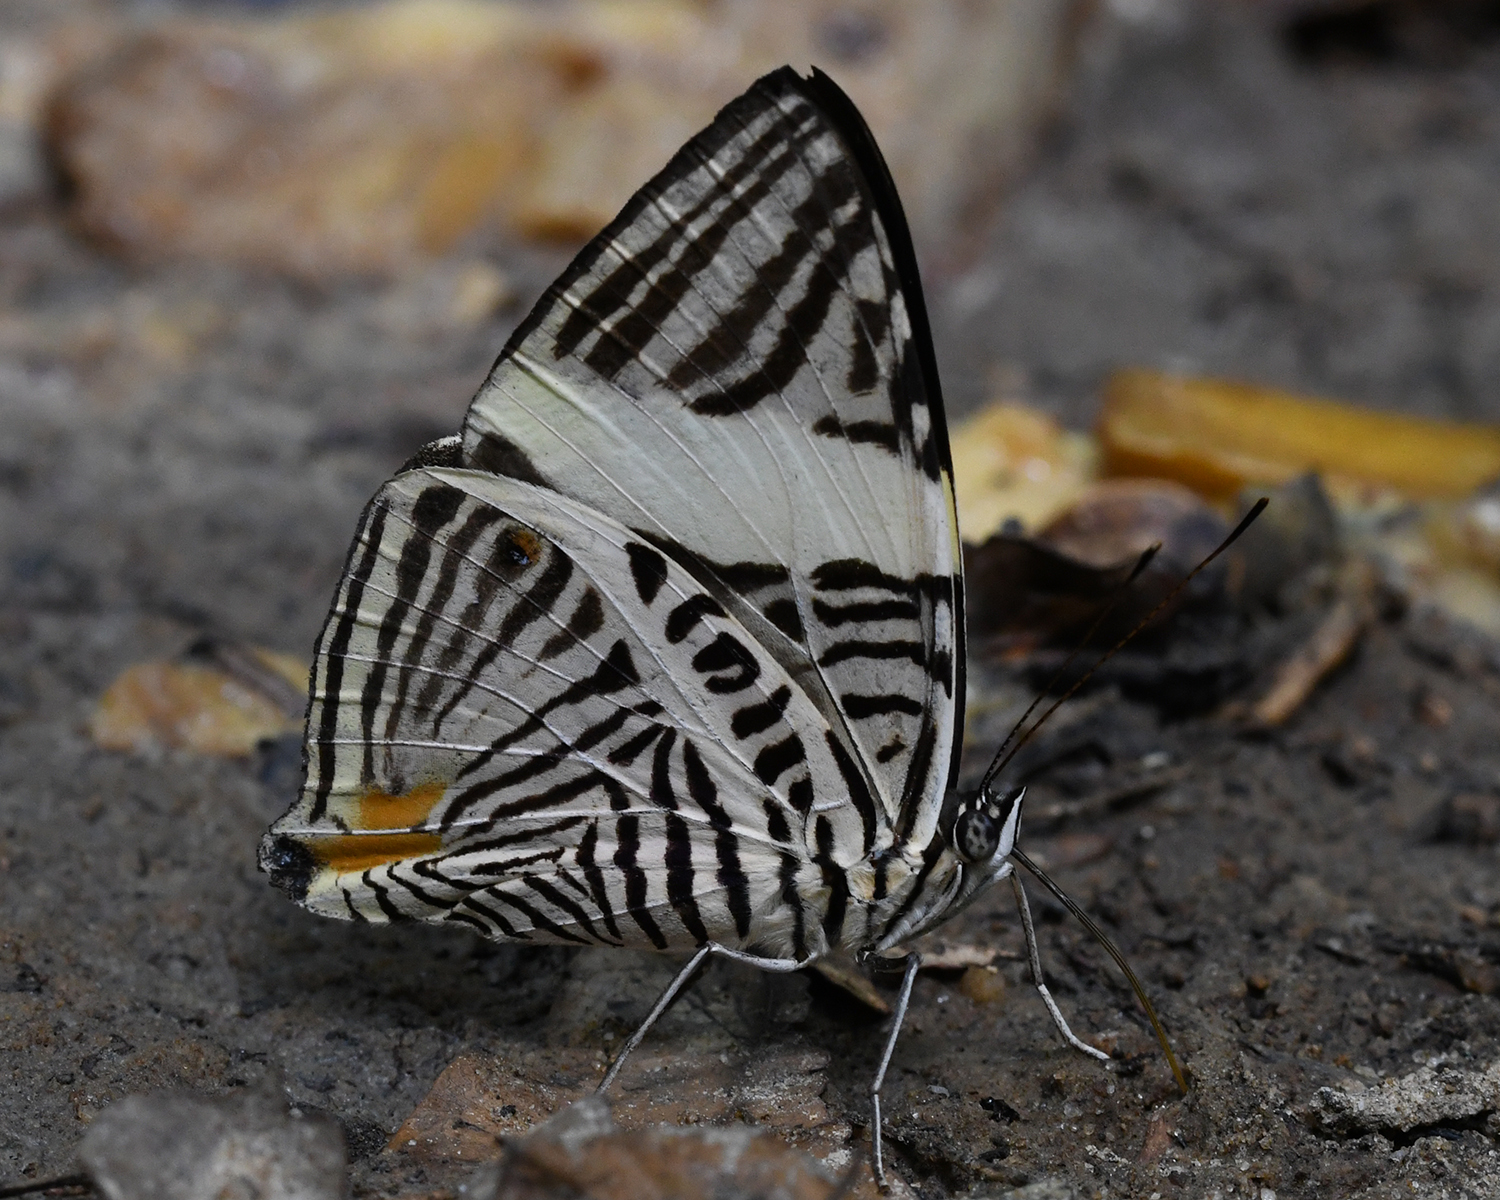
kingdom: Animalia
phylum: Arthropoda
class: Insecta
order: Lepidoptera
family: Nymphalidae
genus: Colobura
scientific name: Colobura annulata
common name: New beauty
